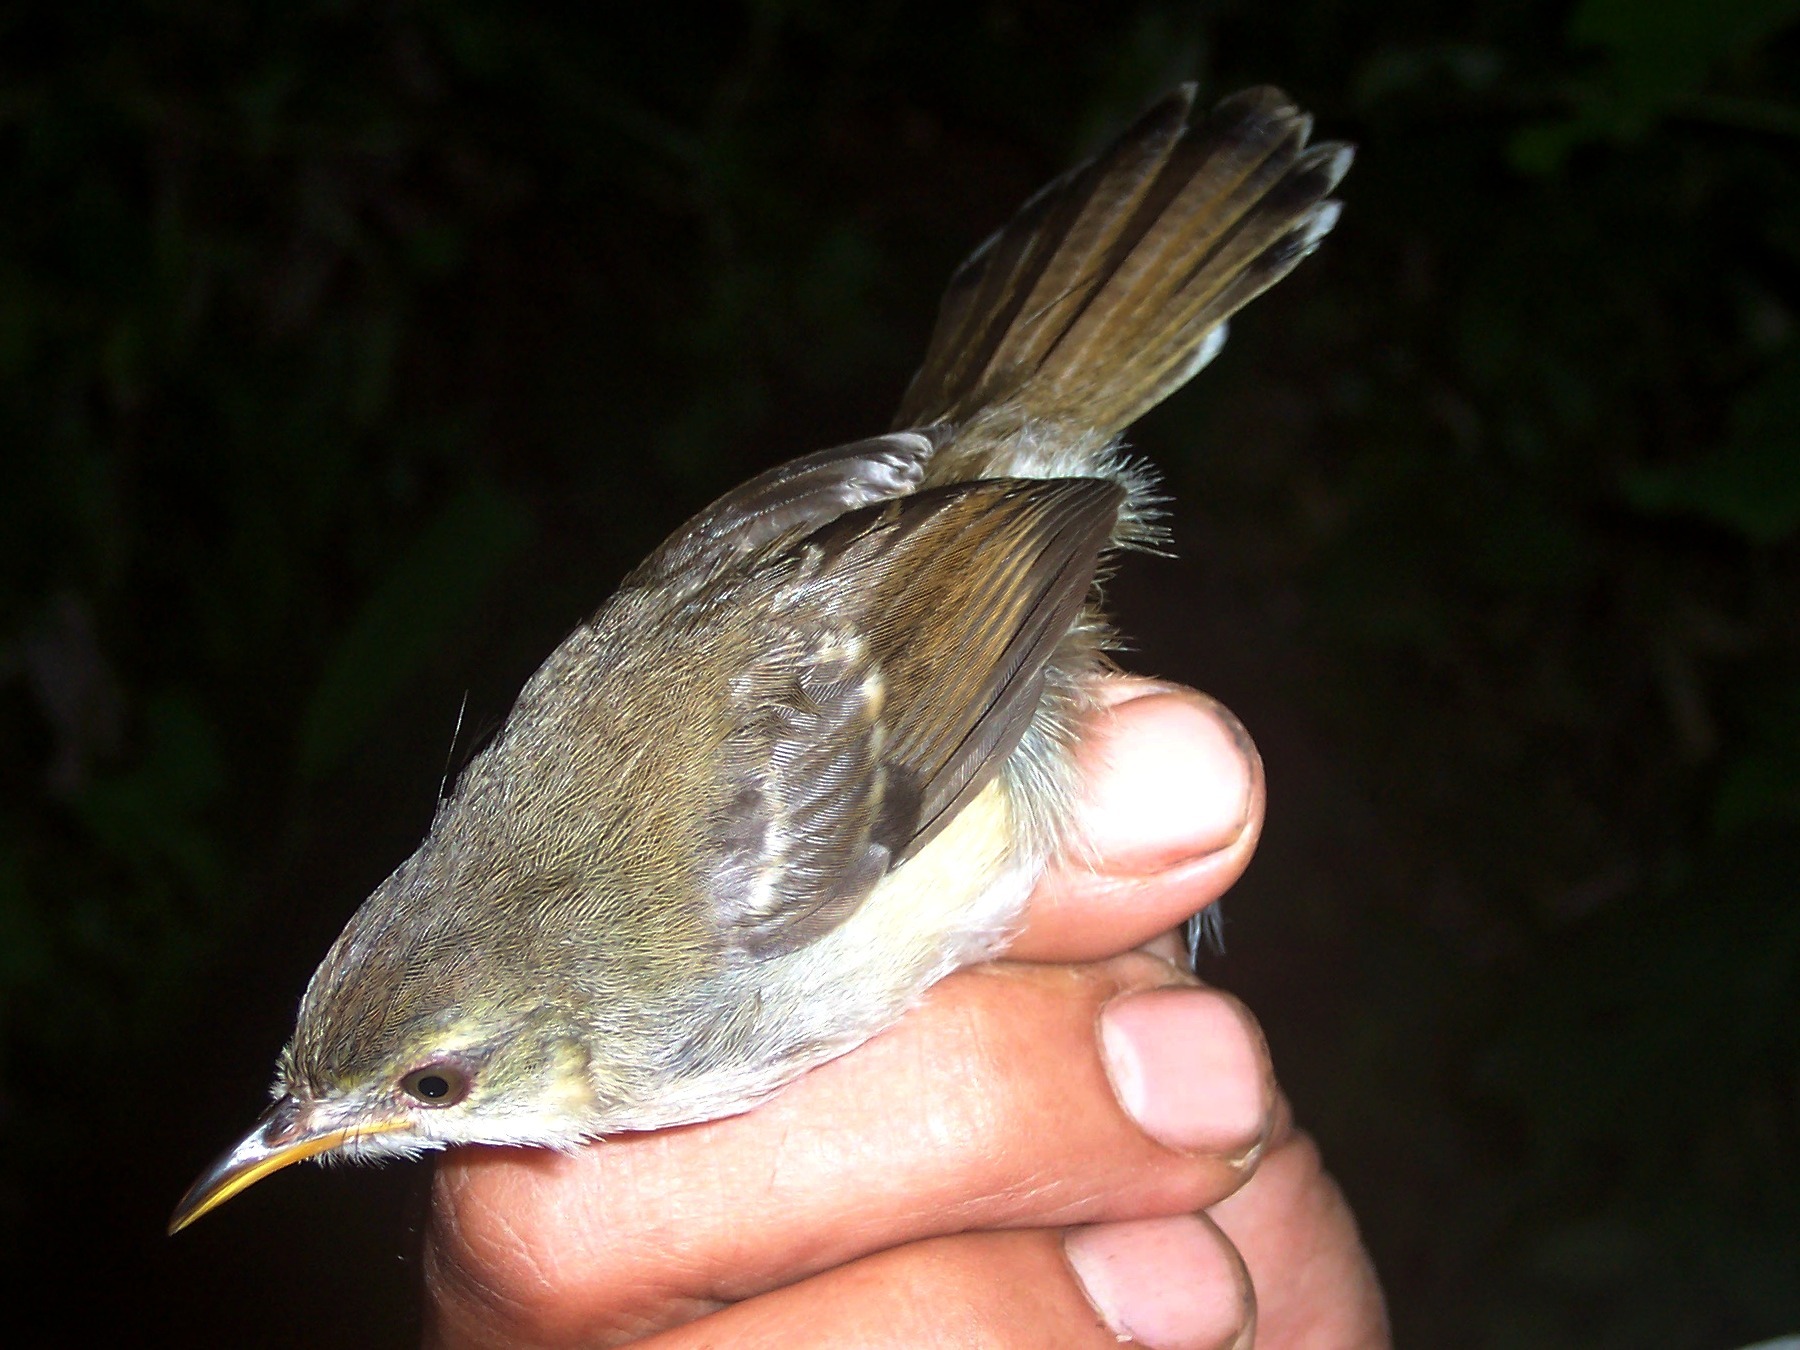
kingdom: Animalia
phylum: Chordata
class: Aves
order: Passeriformes
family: Cisticolidae
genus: Prinia
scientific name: Prinia familiaris
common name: Bar-winged prinia
